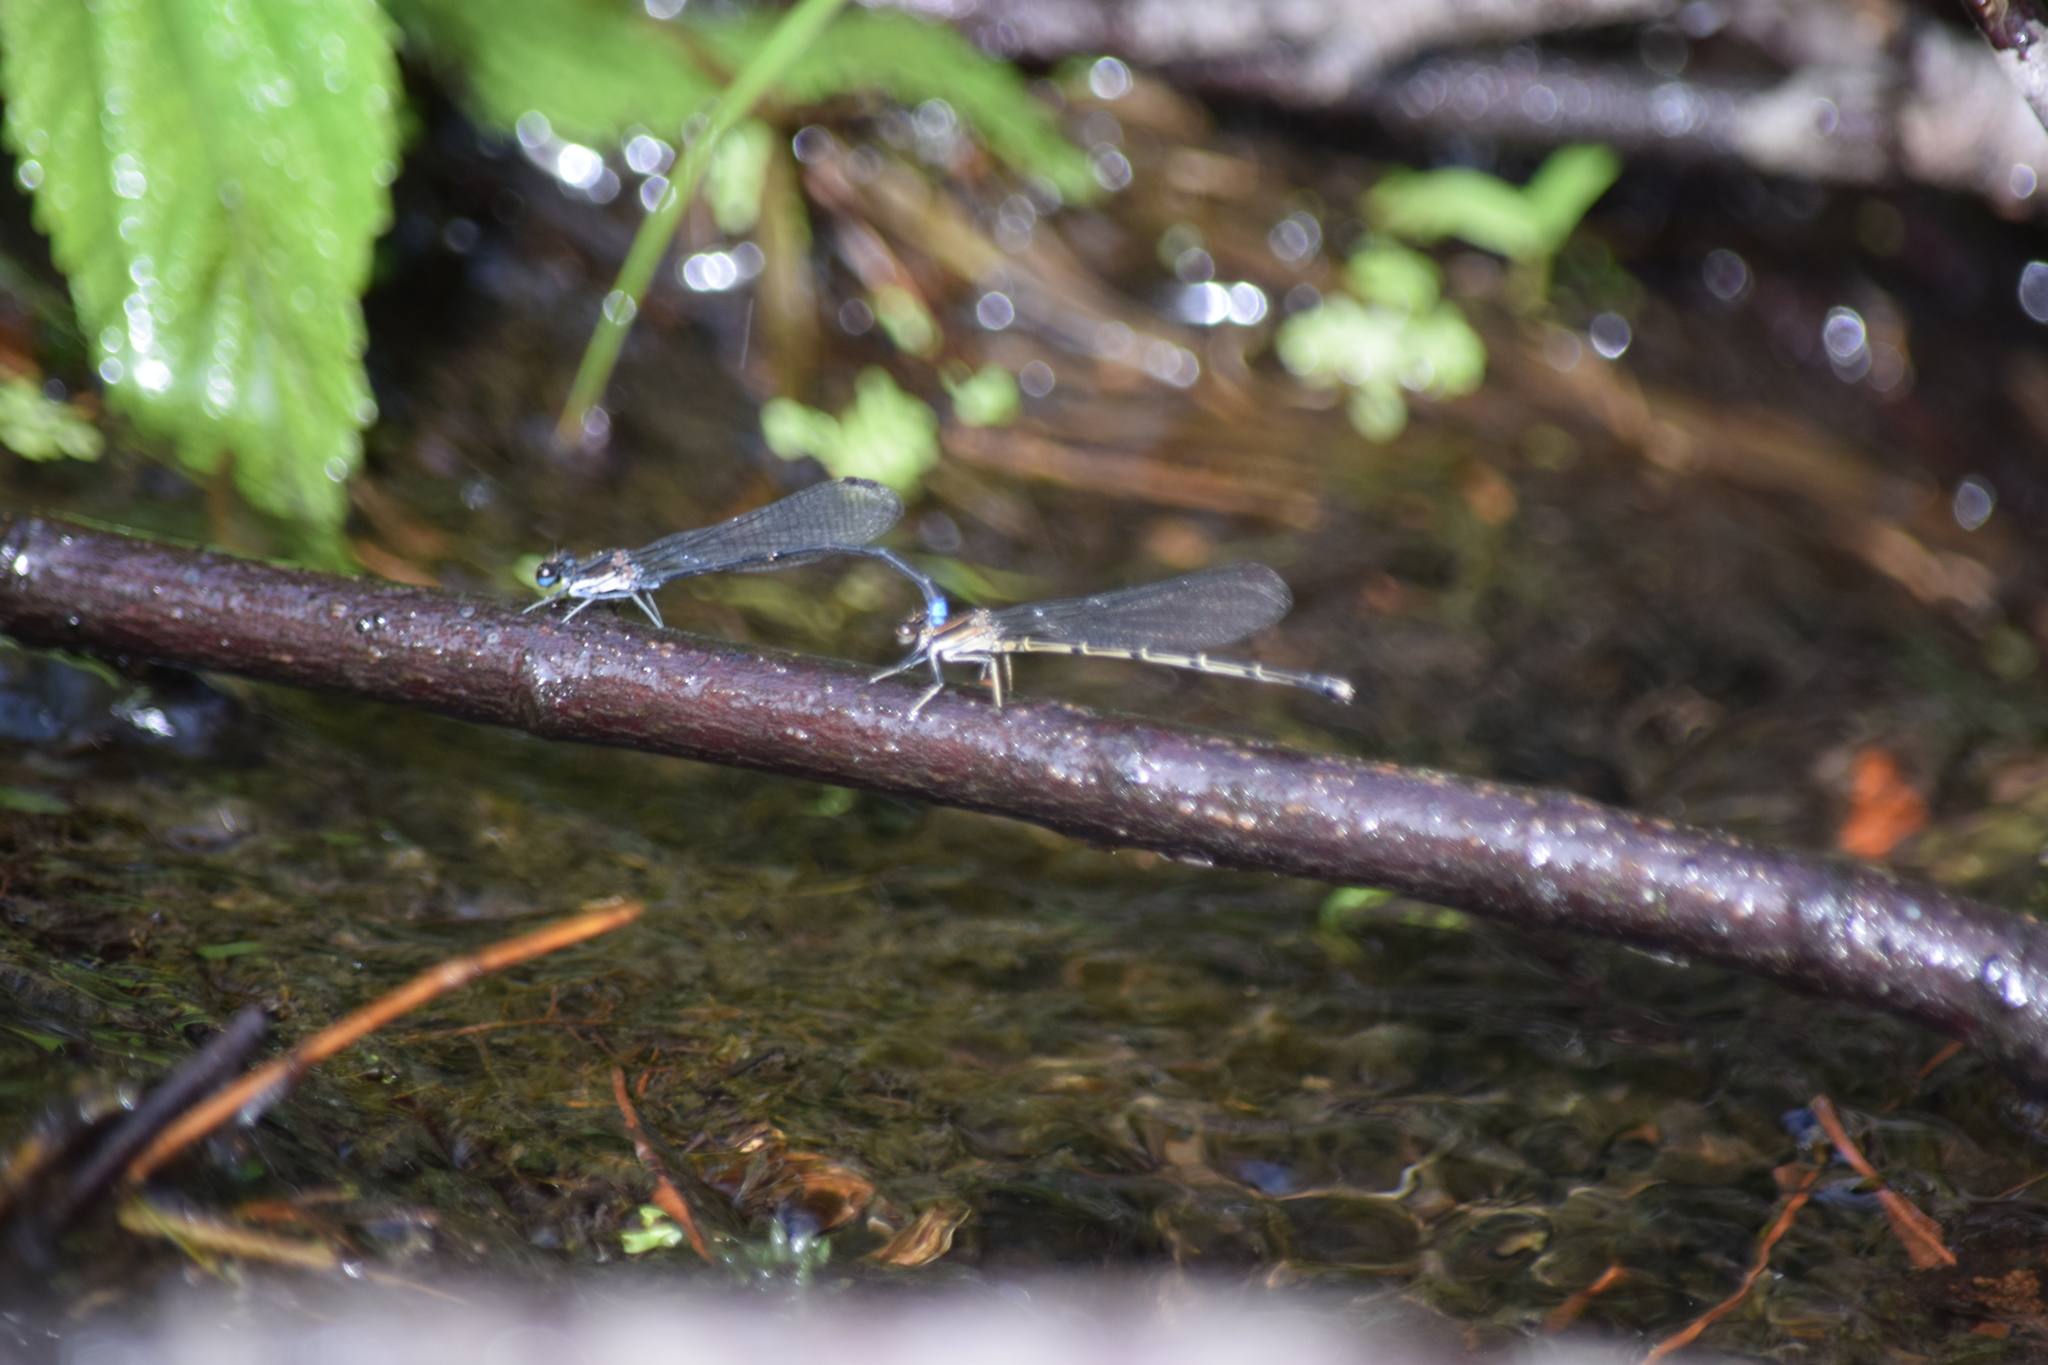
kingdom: Animalia
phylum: Arthropoda
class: Insecta
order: Odonata
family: Coenagrionidae
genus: Argia
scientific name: Argia tibialis
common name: Blue-tipped dancer
